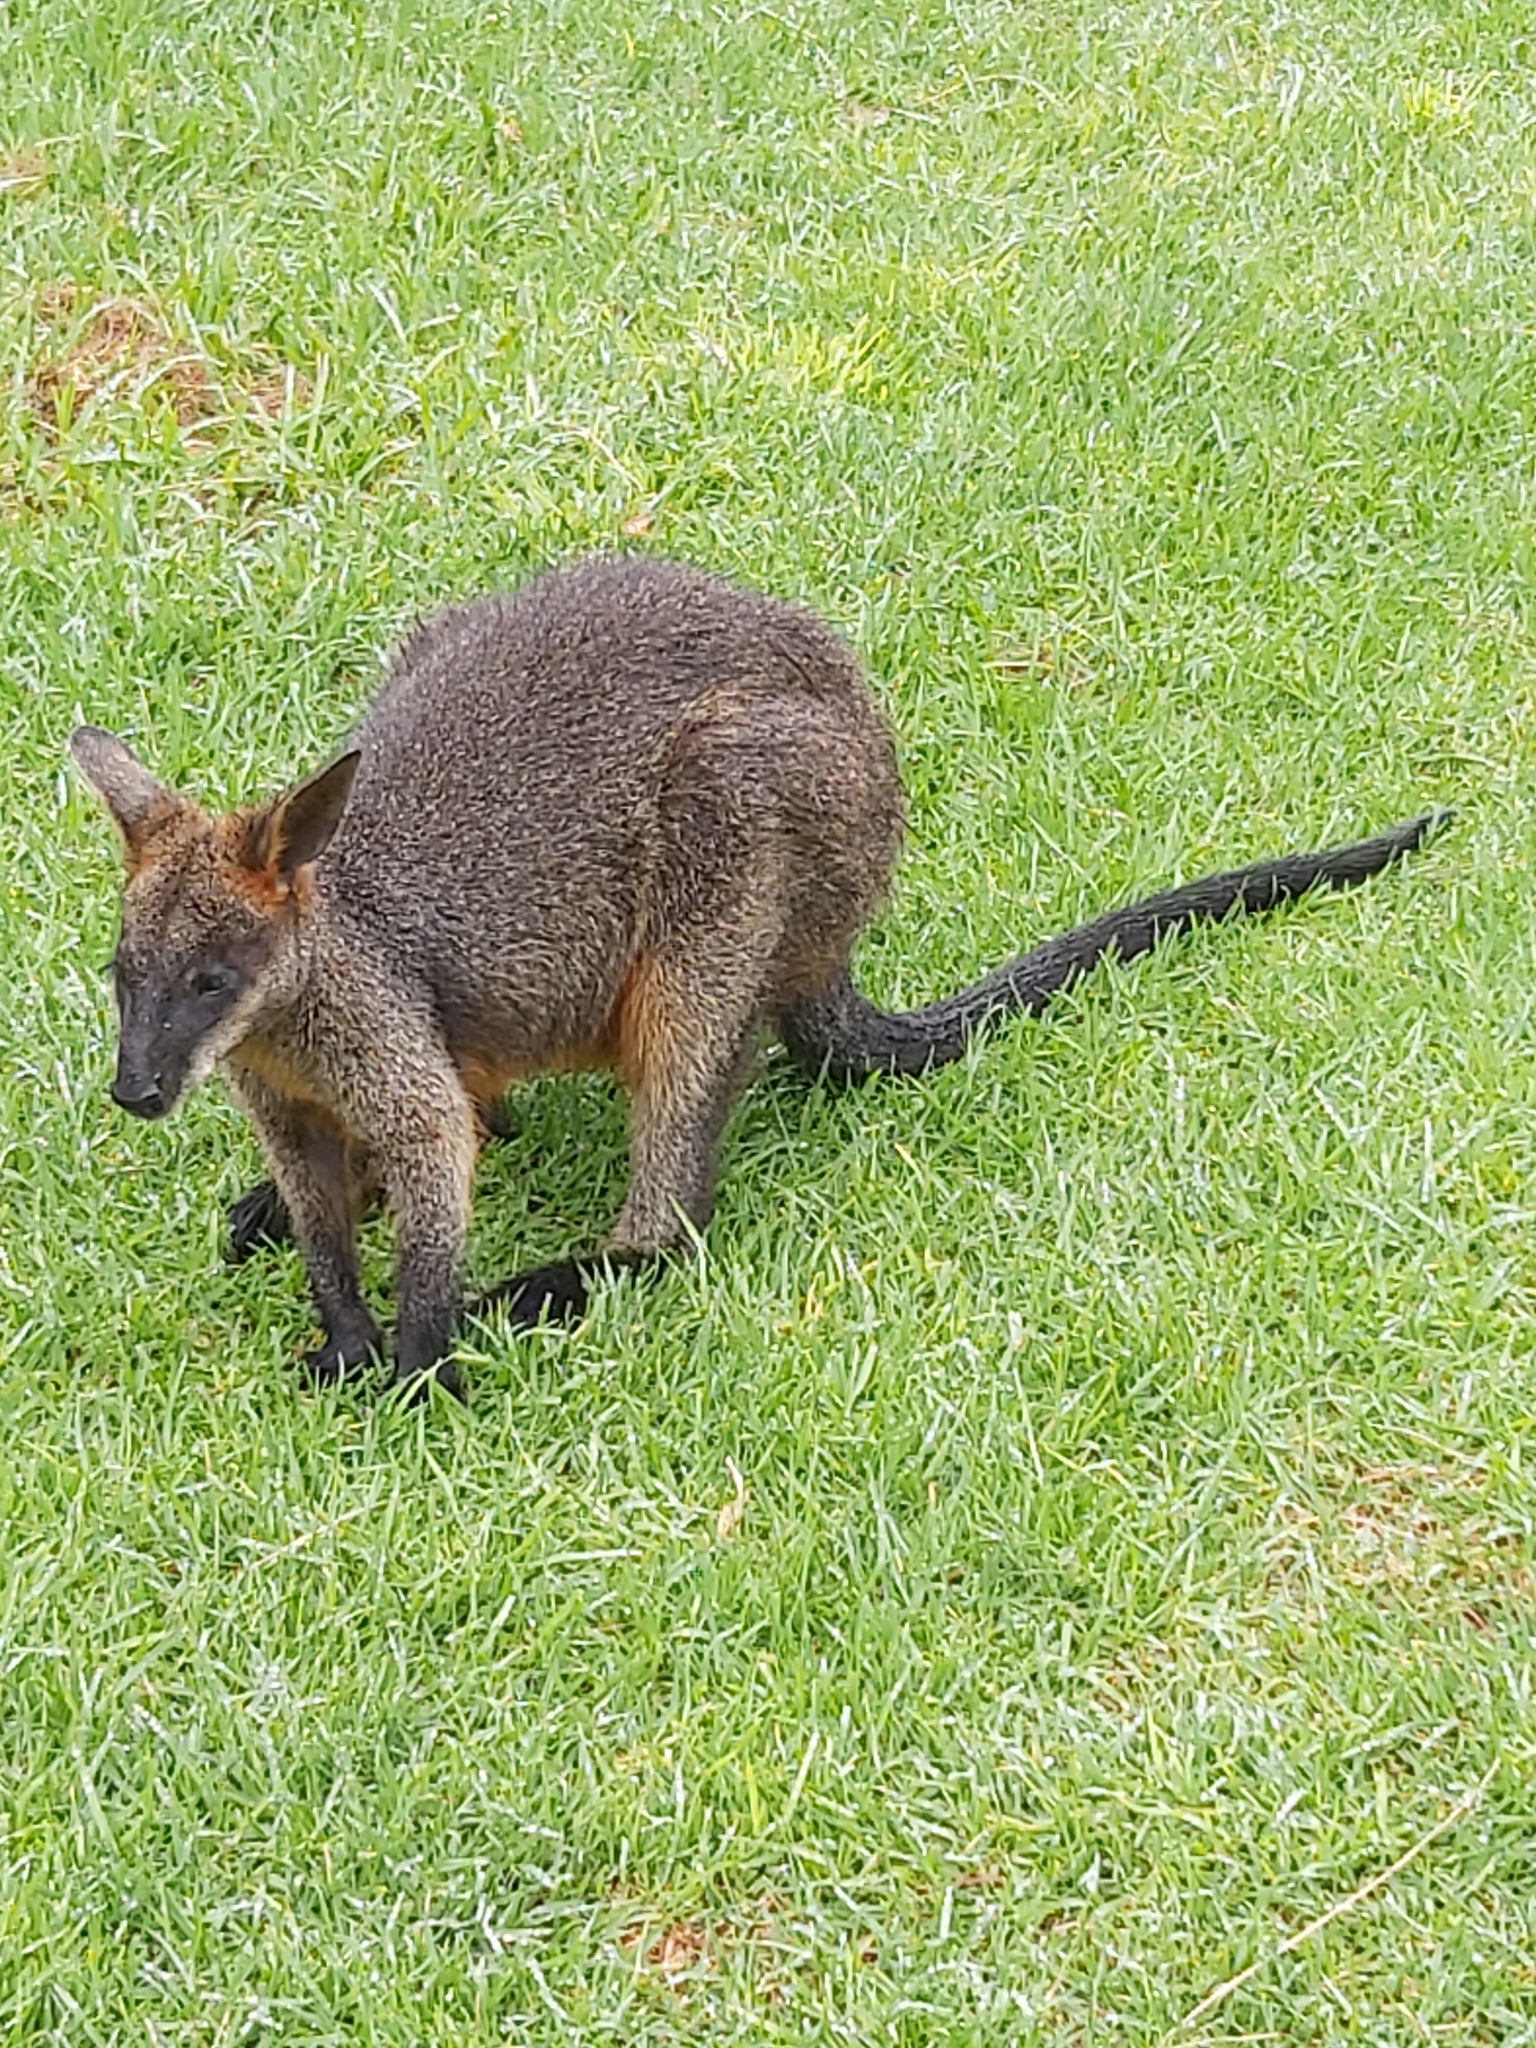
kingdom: Animalia
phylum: Chordata
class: Mammalia
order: Diprotodontia
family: Macropodidae
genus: Wallabia
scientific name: Wallabia bicolor
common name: Swamp wallaby
